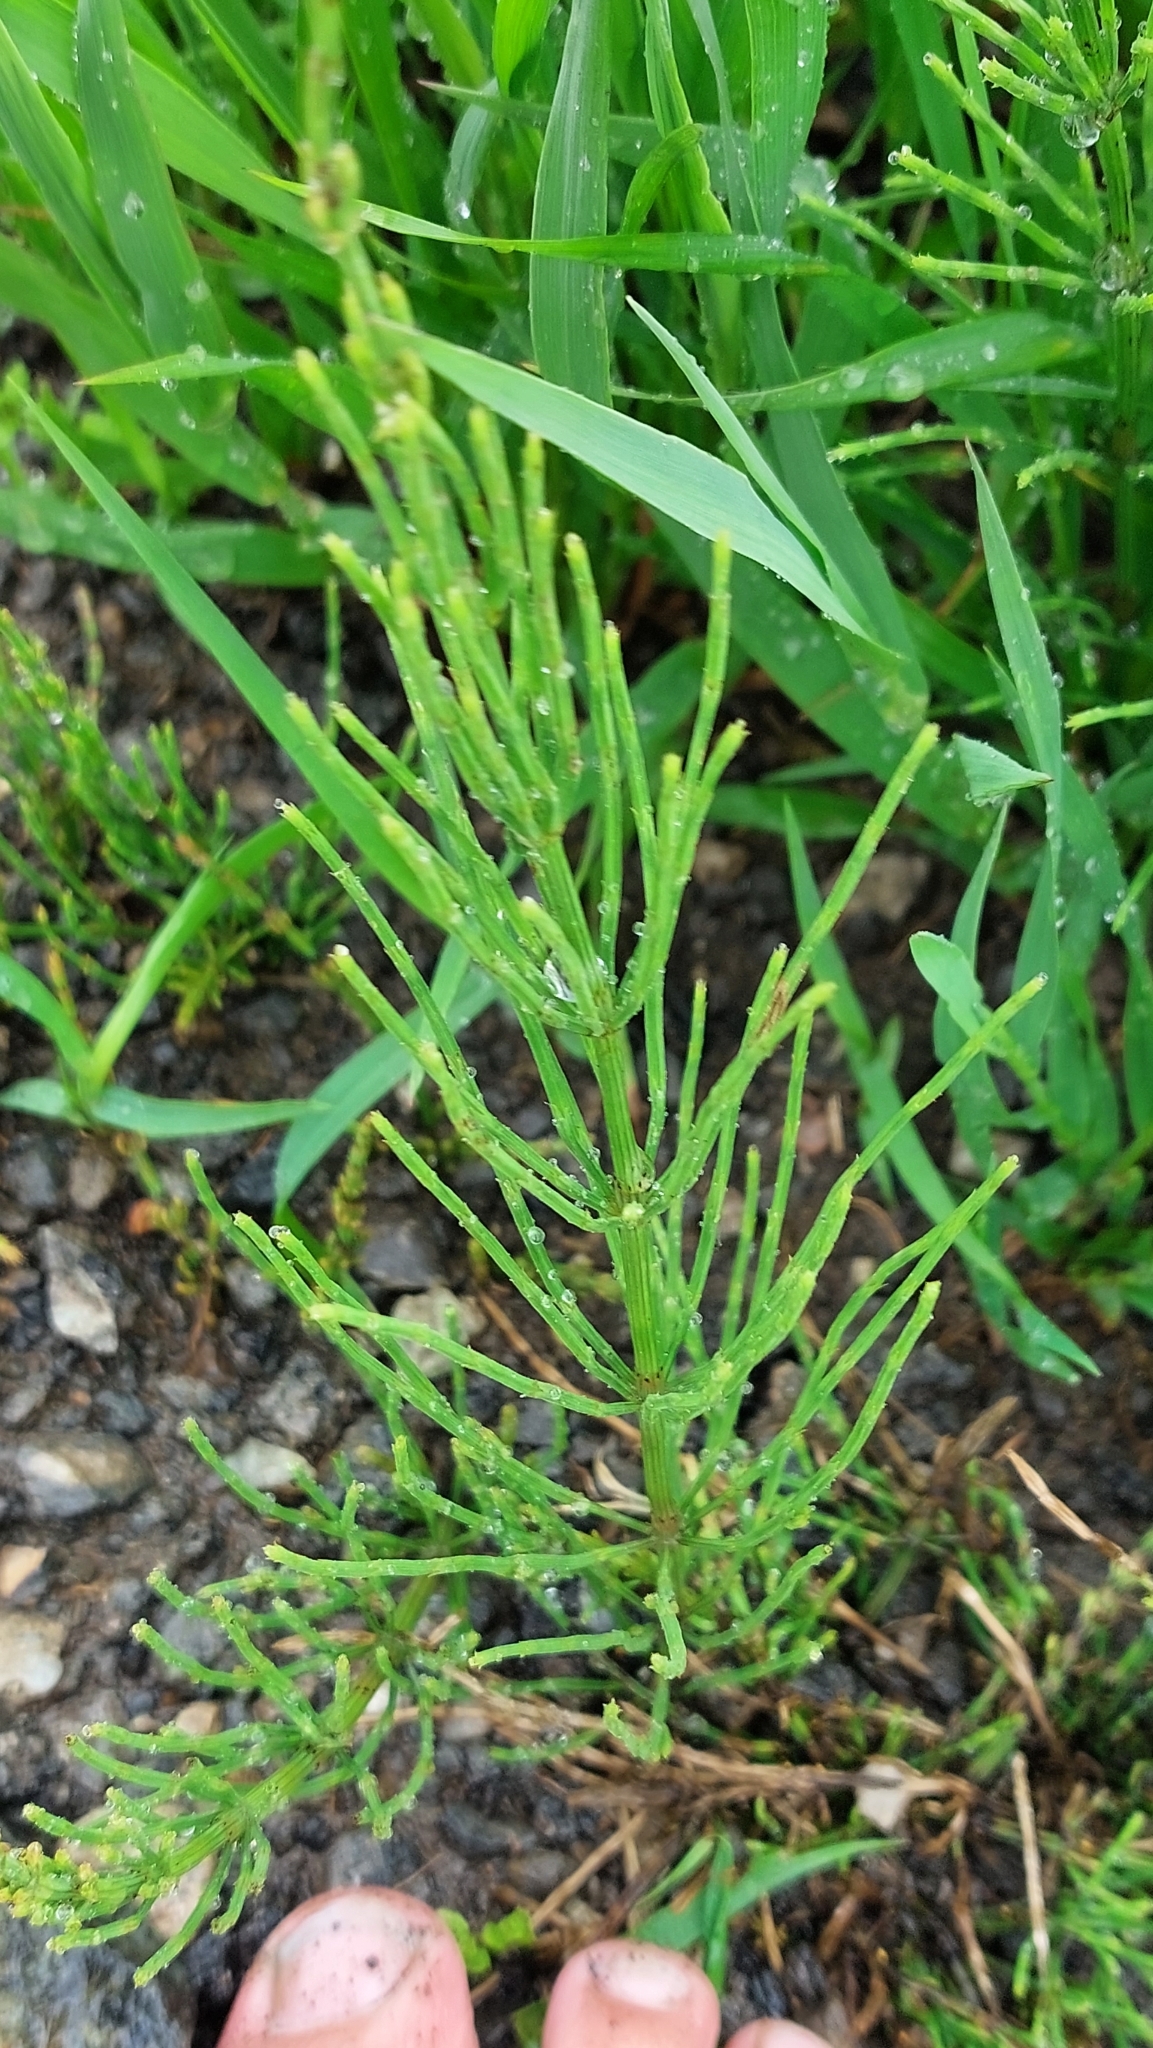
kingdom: Plantae
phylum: Tracheophyta
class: Polypodiopsida
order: Equisetales
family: Equisetaceae
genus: Equisetum
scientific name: Equisetum arvense
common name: Field horsetail
